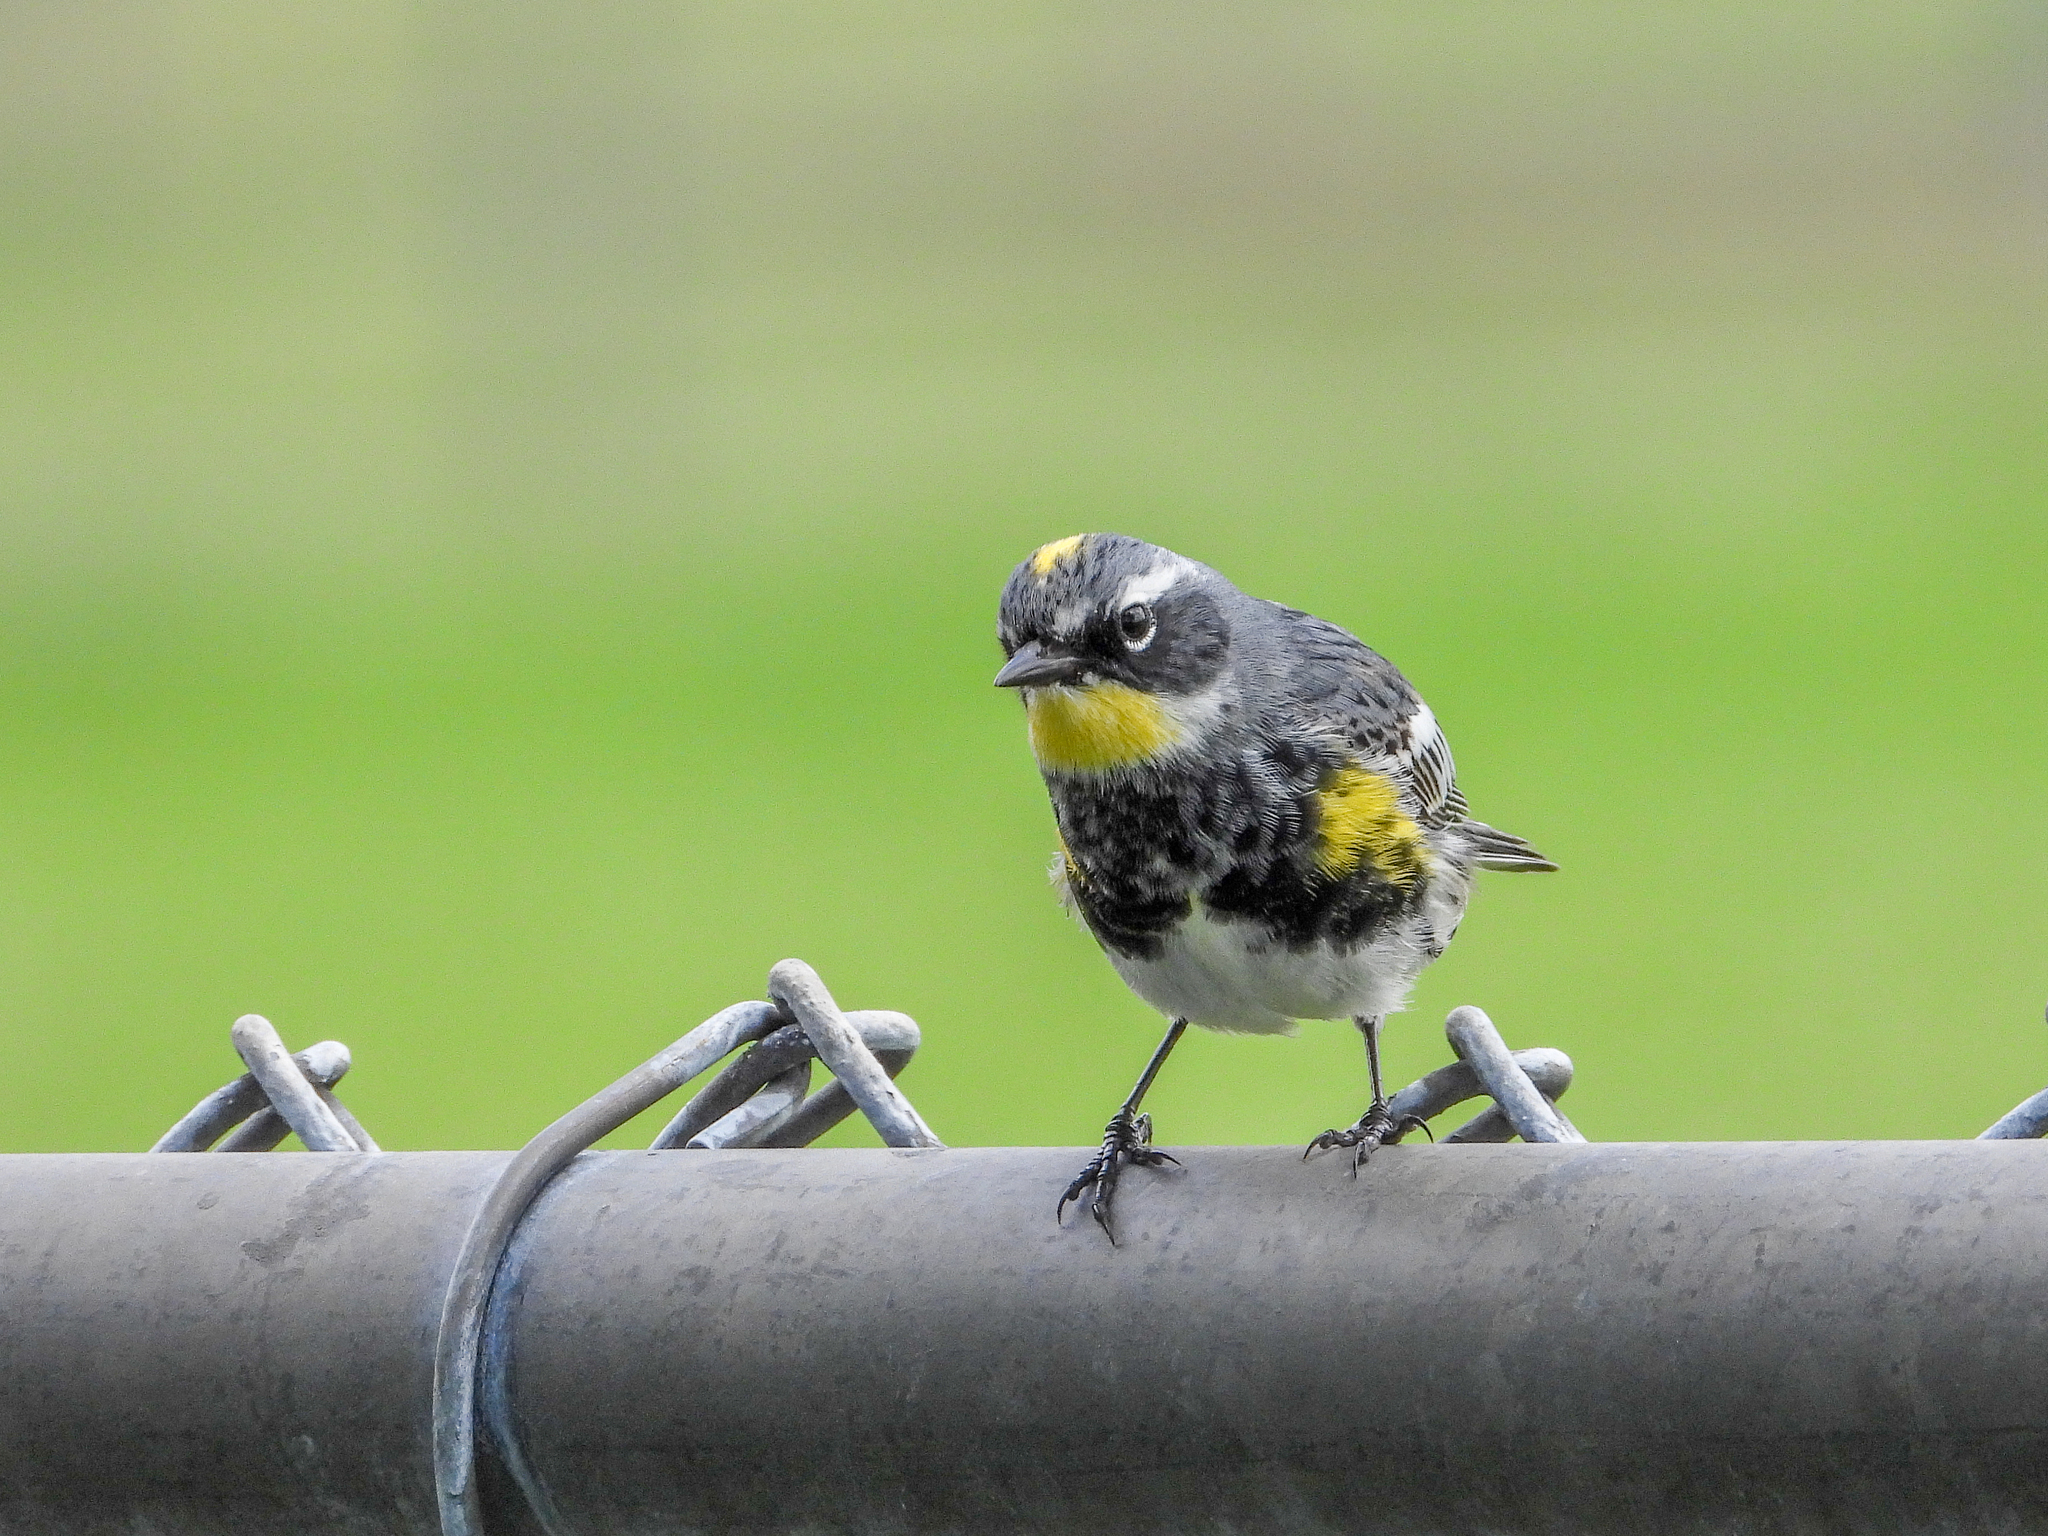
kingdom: Animalia
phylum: Chordata
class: Aves
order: Passeriformes
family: Parulidae
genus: Setophaga
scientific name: Setophaga
